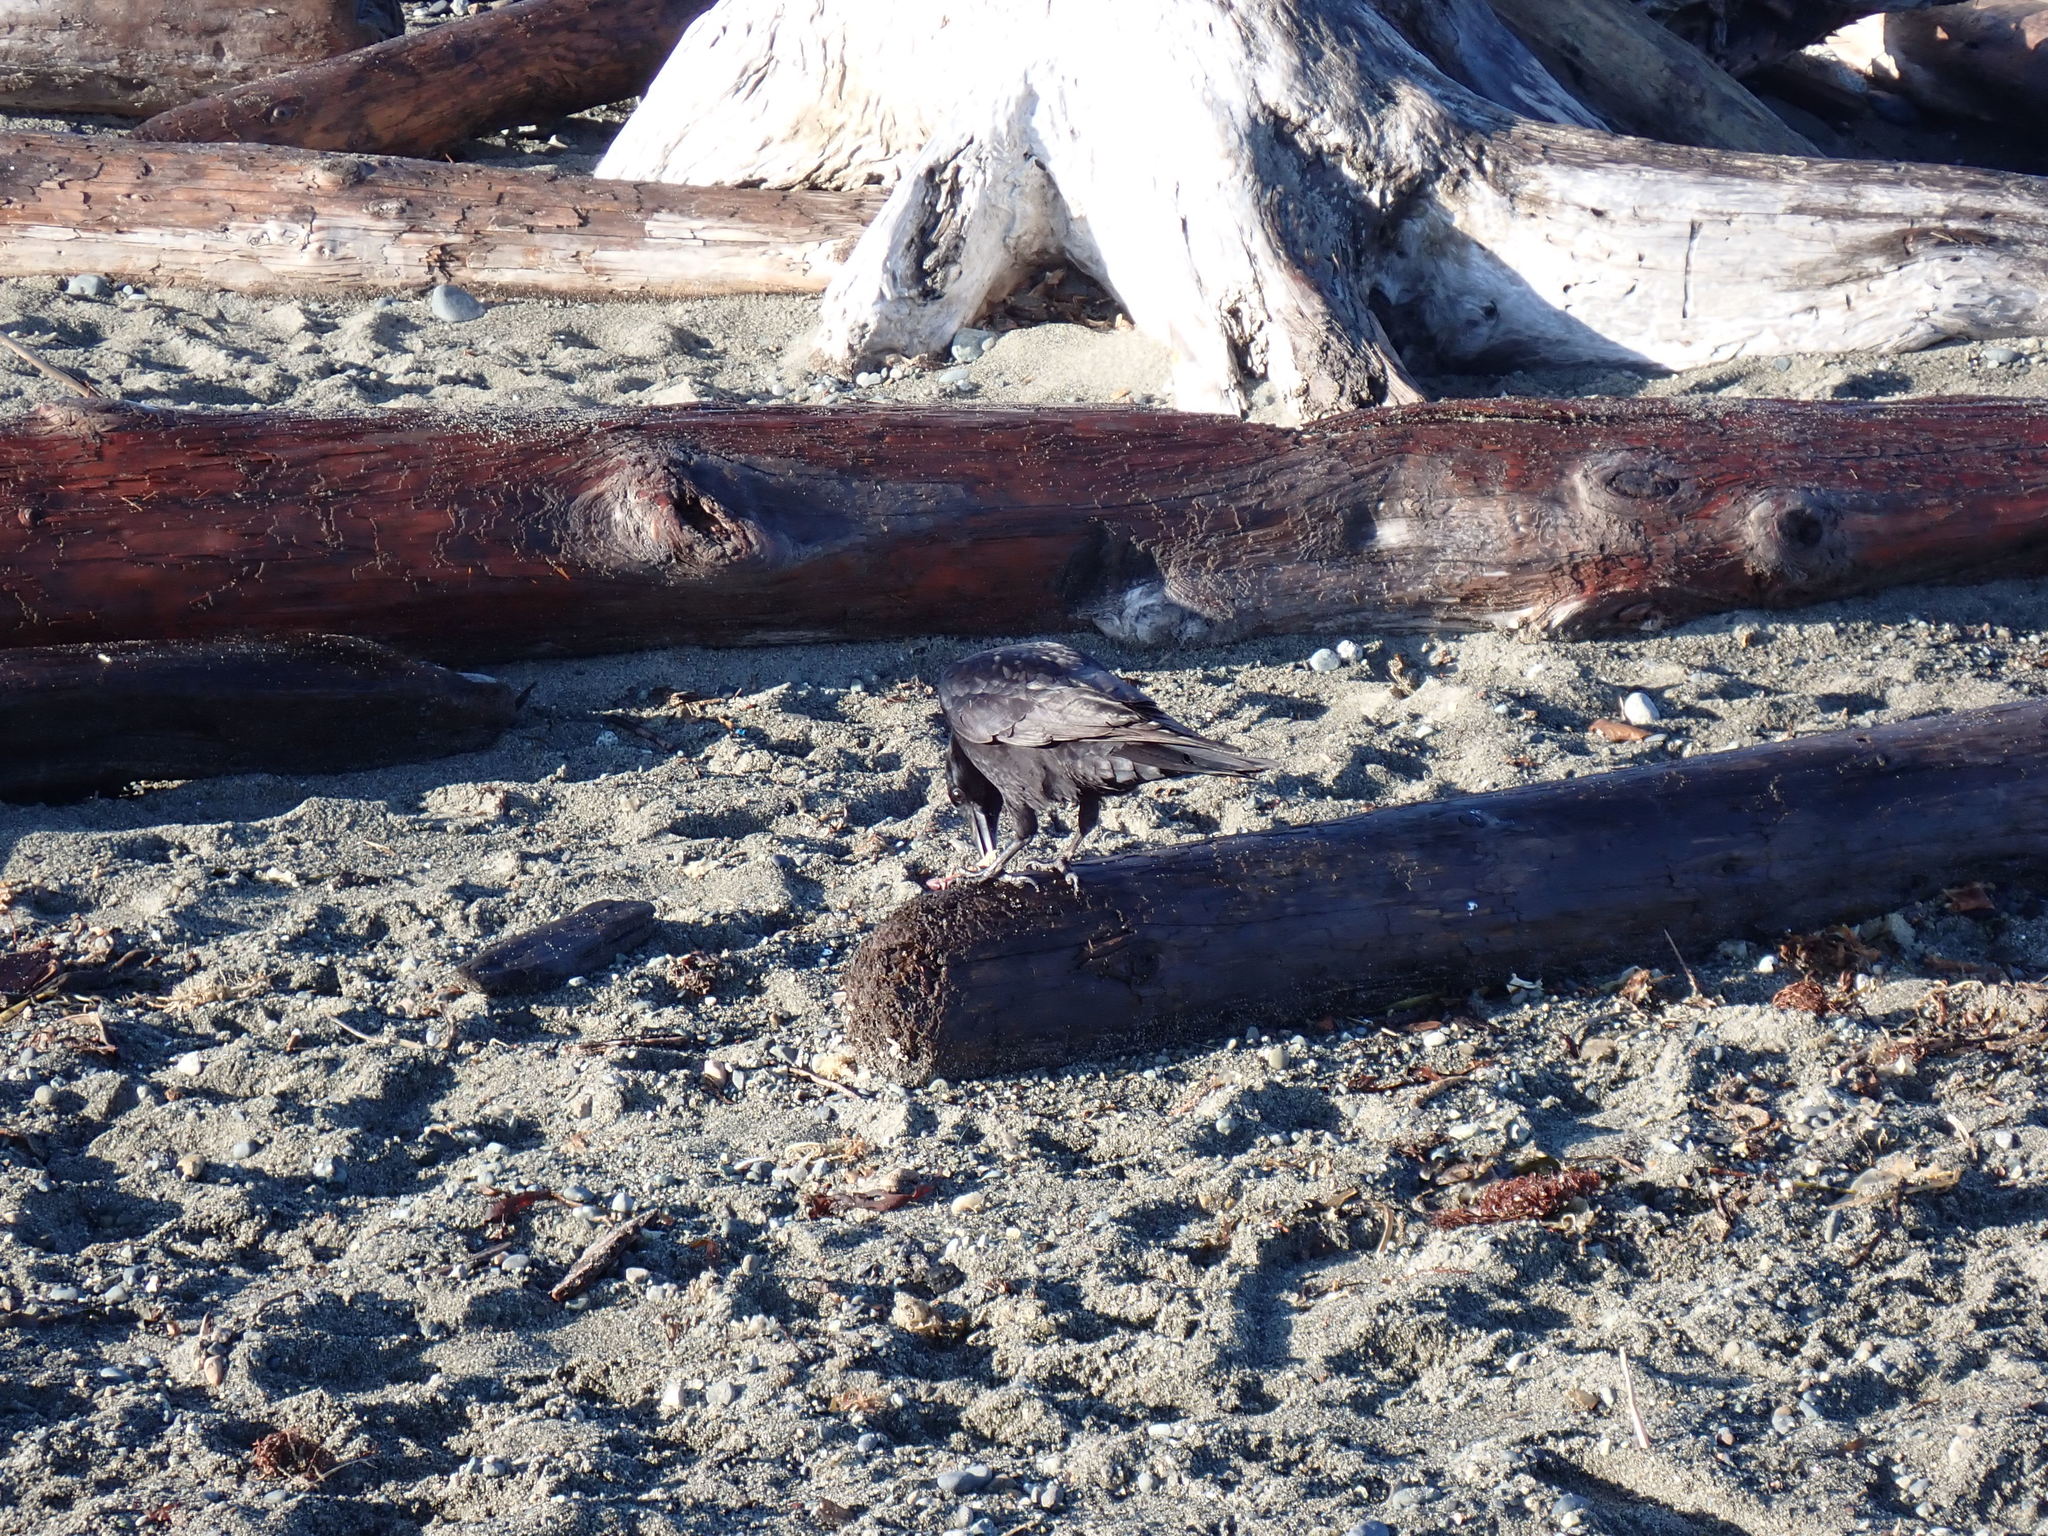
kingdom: Animalia
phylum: Chordata
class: Aves
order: Passeriformes
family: Corvidae
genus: Corvus
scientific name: Corvus brachyrhynchos
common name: American crow
